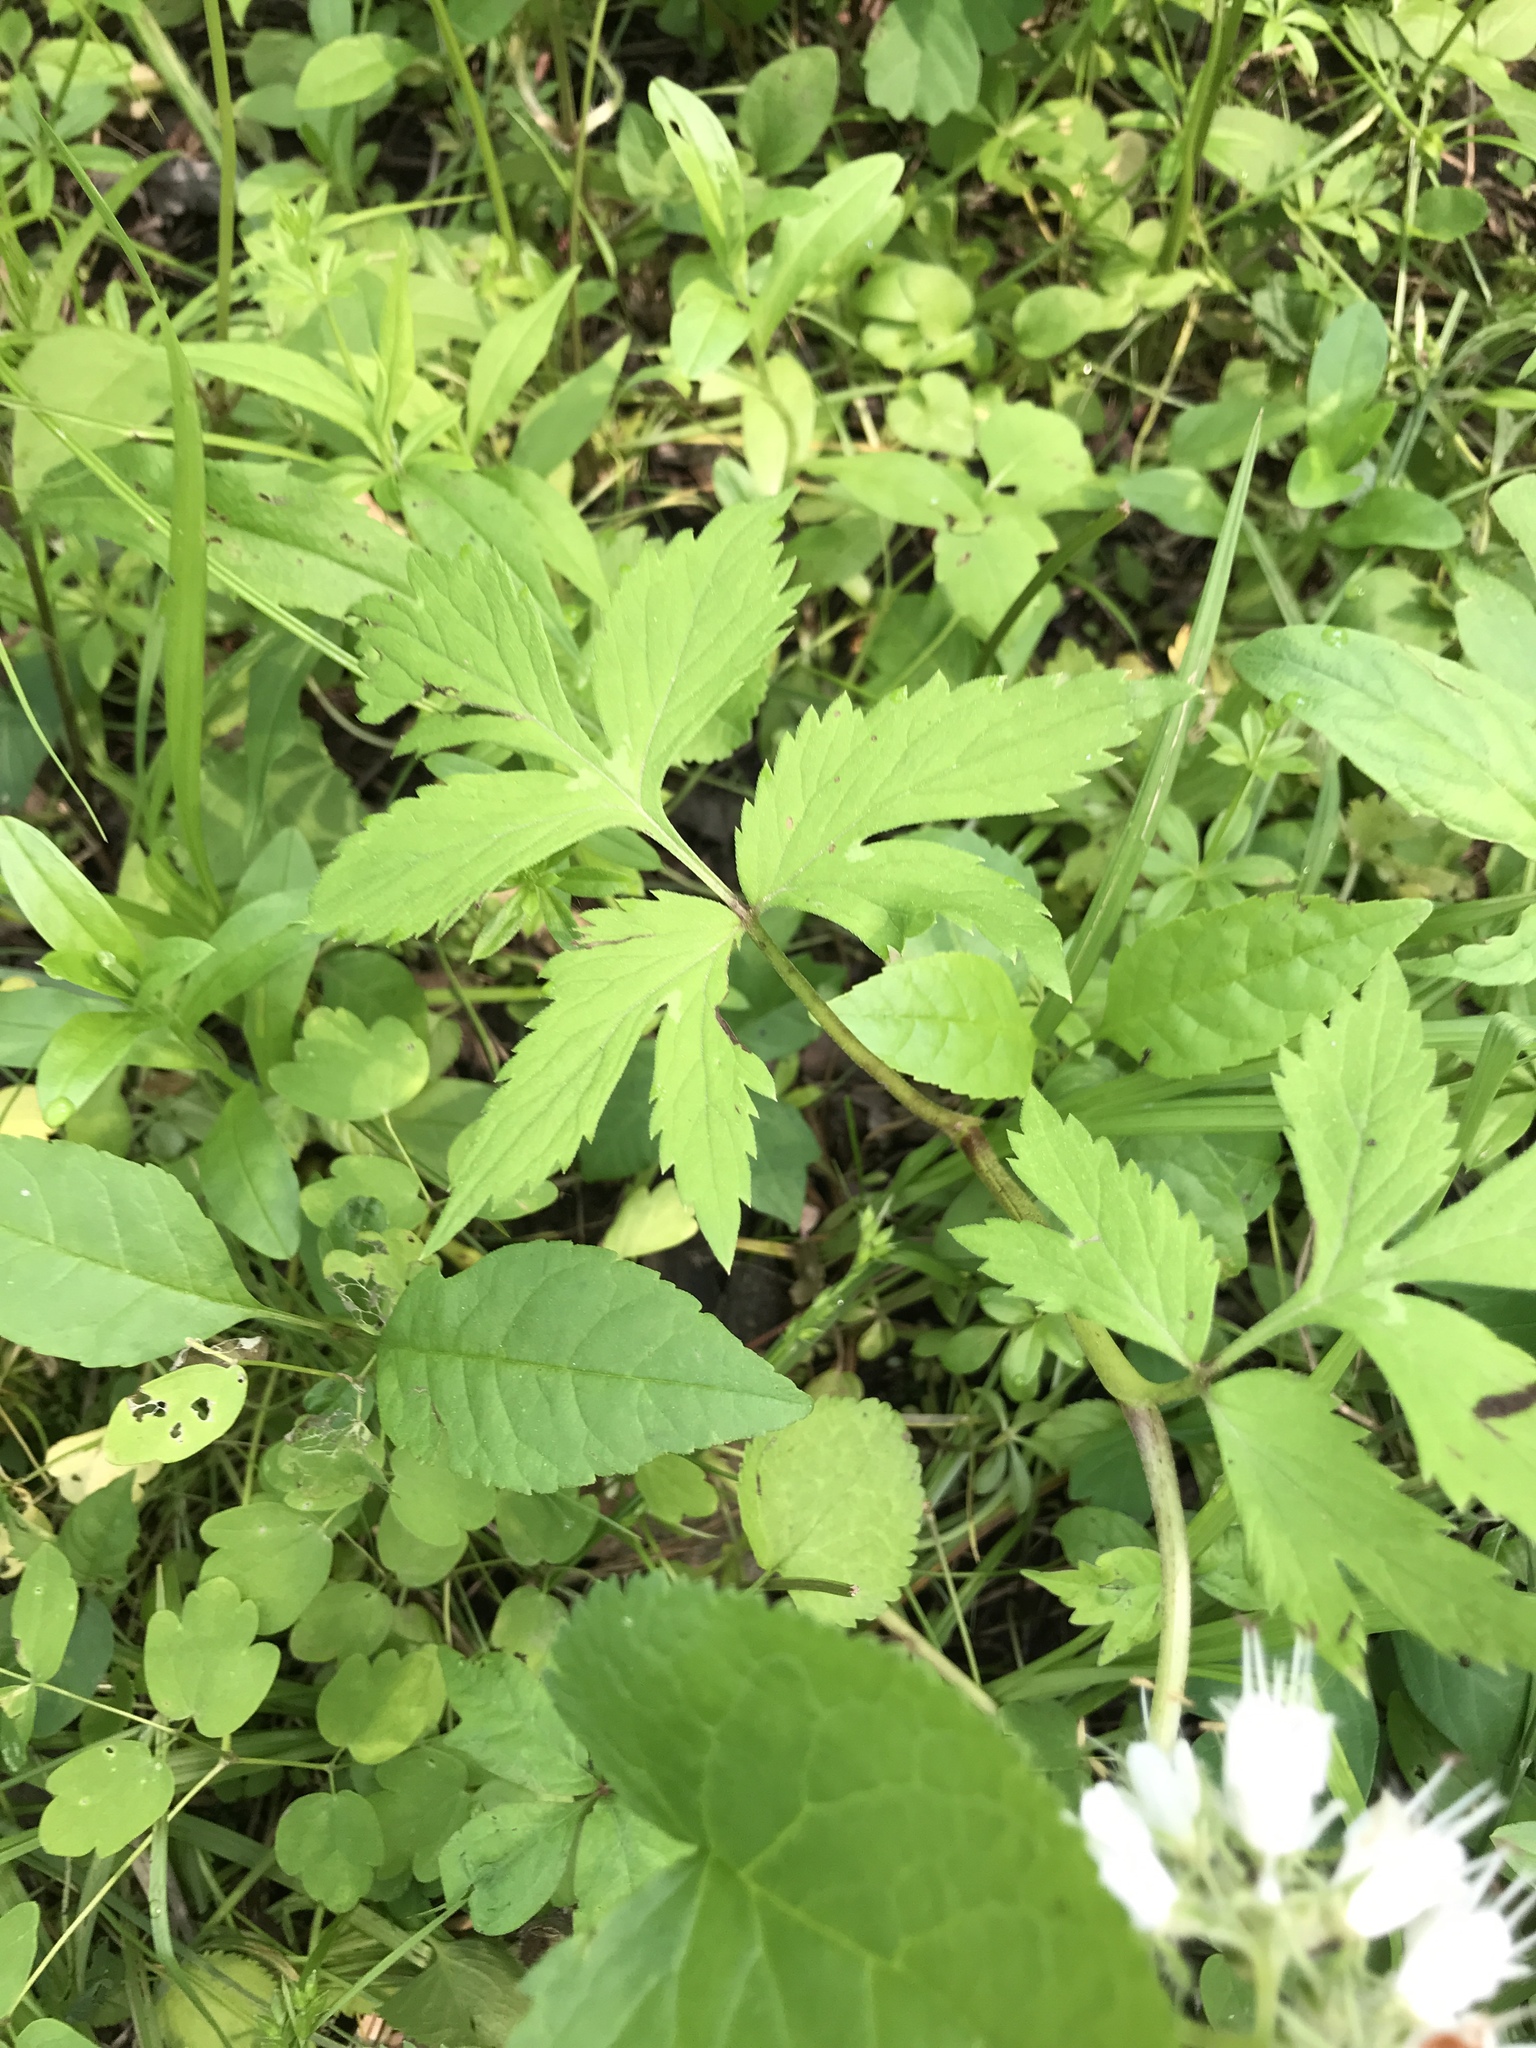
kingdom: Plantae
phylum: Tracheophyta
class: Magnoliopsida
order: Boraginales
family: Hydrophyllaceae
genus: Hydrophyllum
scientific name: Hydrophyllum virginianum
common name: Virginia waterleaf
